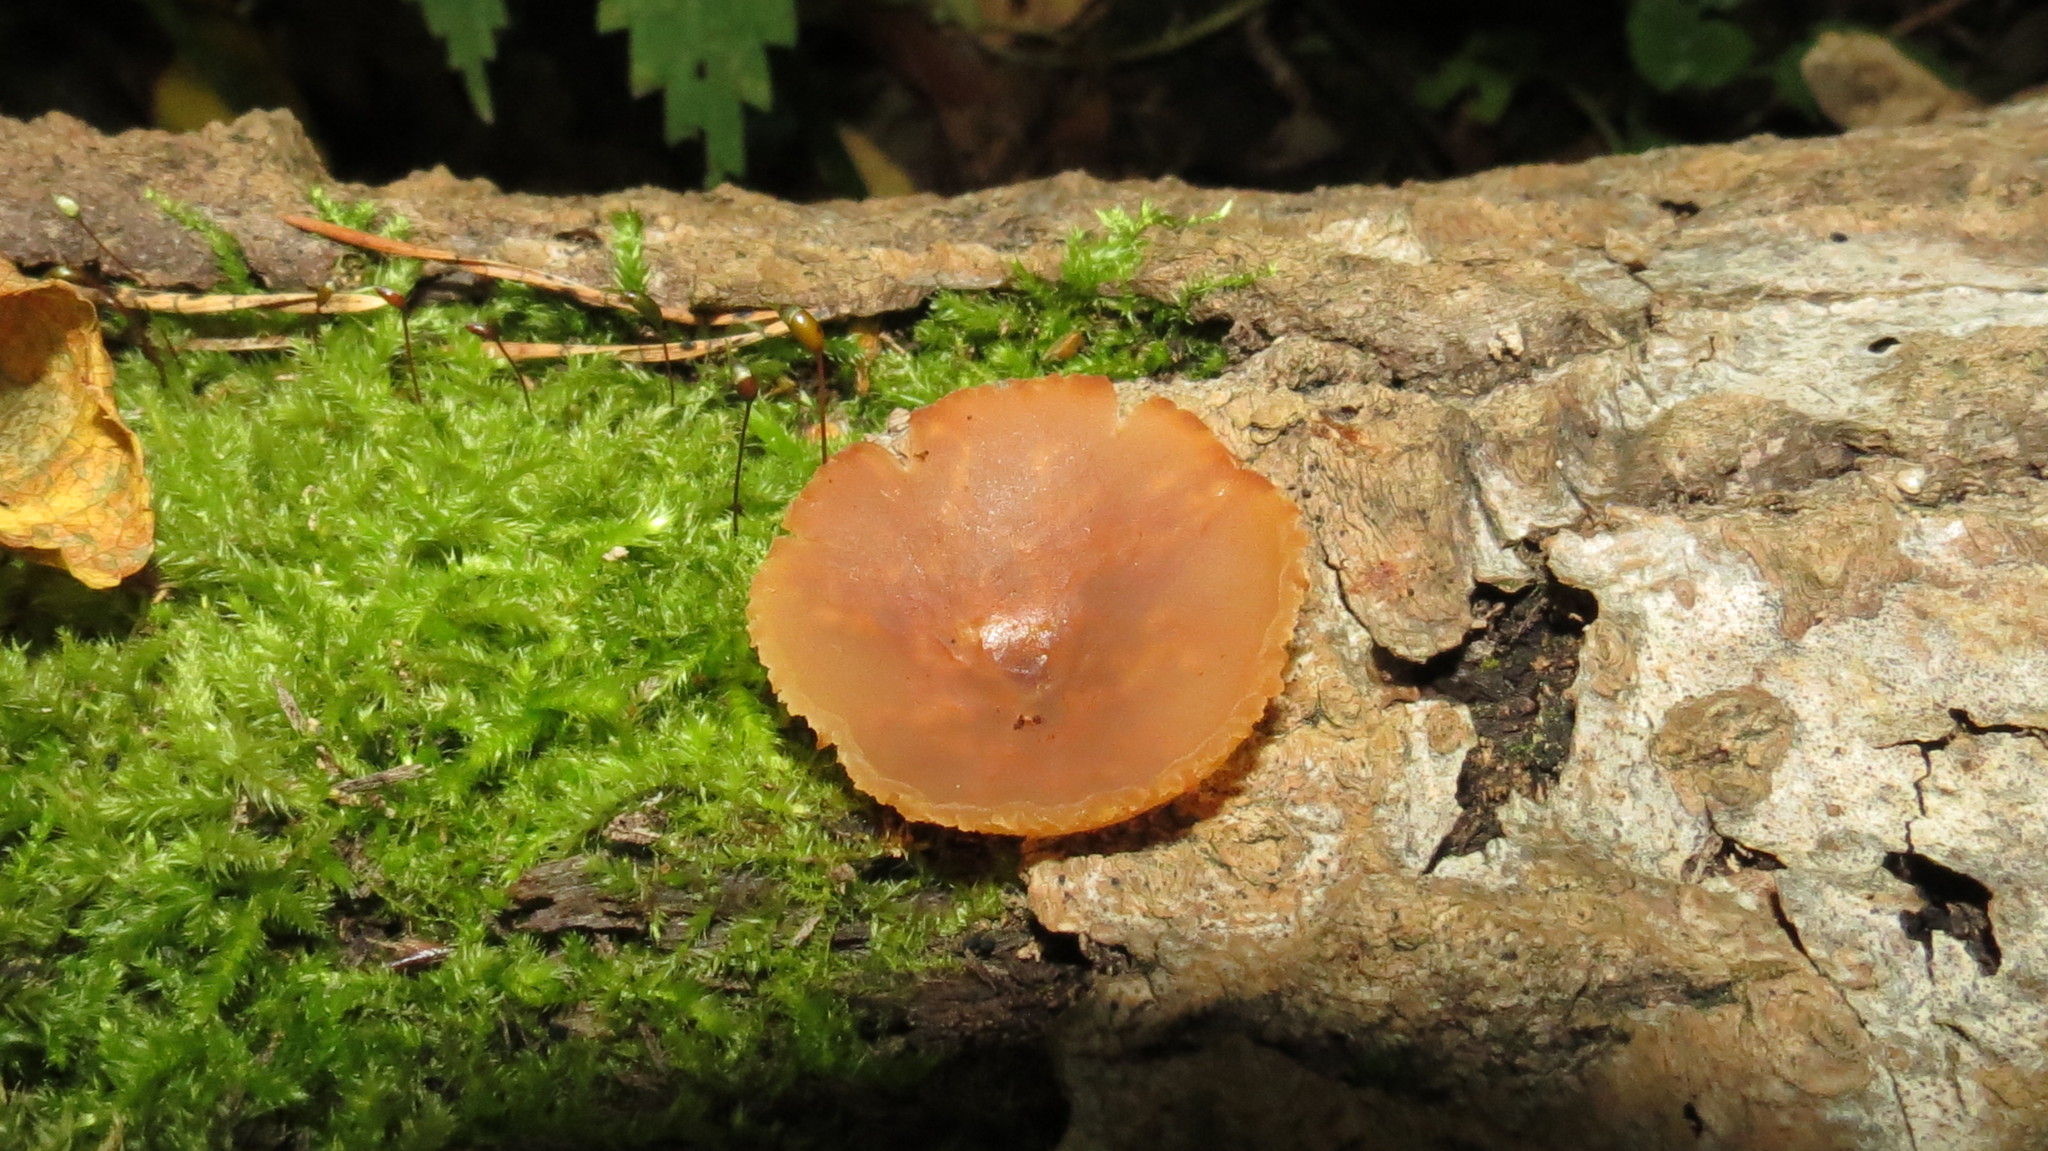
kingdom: Fungi
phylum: Ascomycota
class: Pezizomycetes
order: Pezizales
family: Pezizaceae
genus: Peziza
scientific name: Peziza varia
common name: Layered cup
